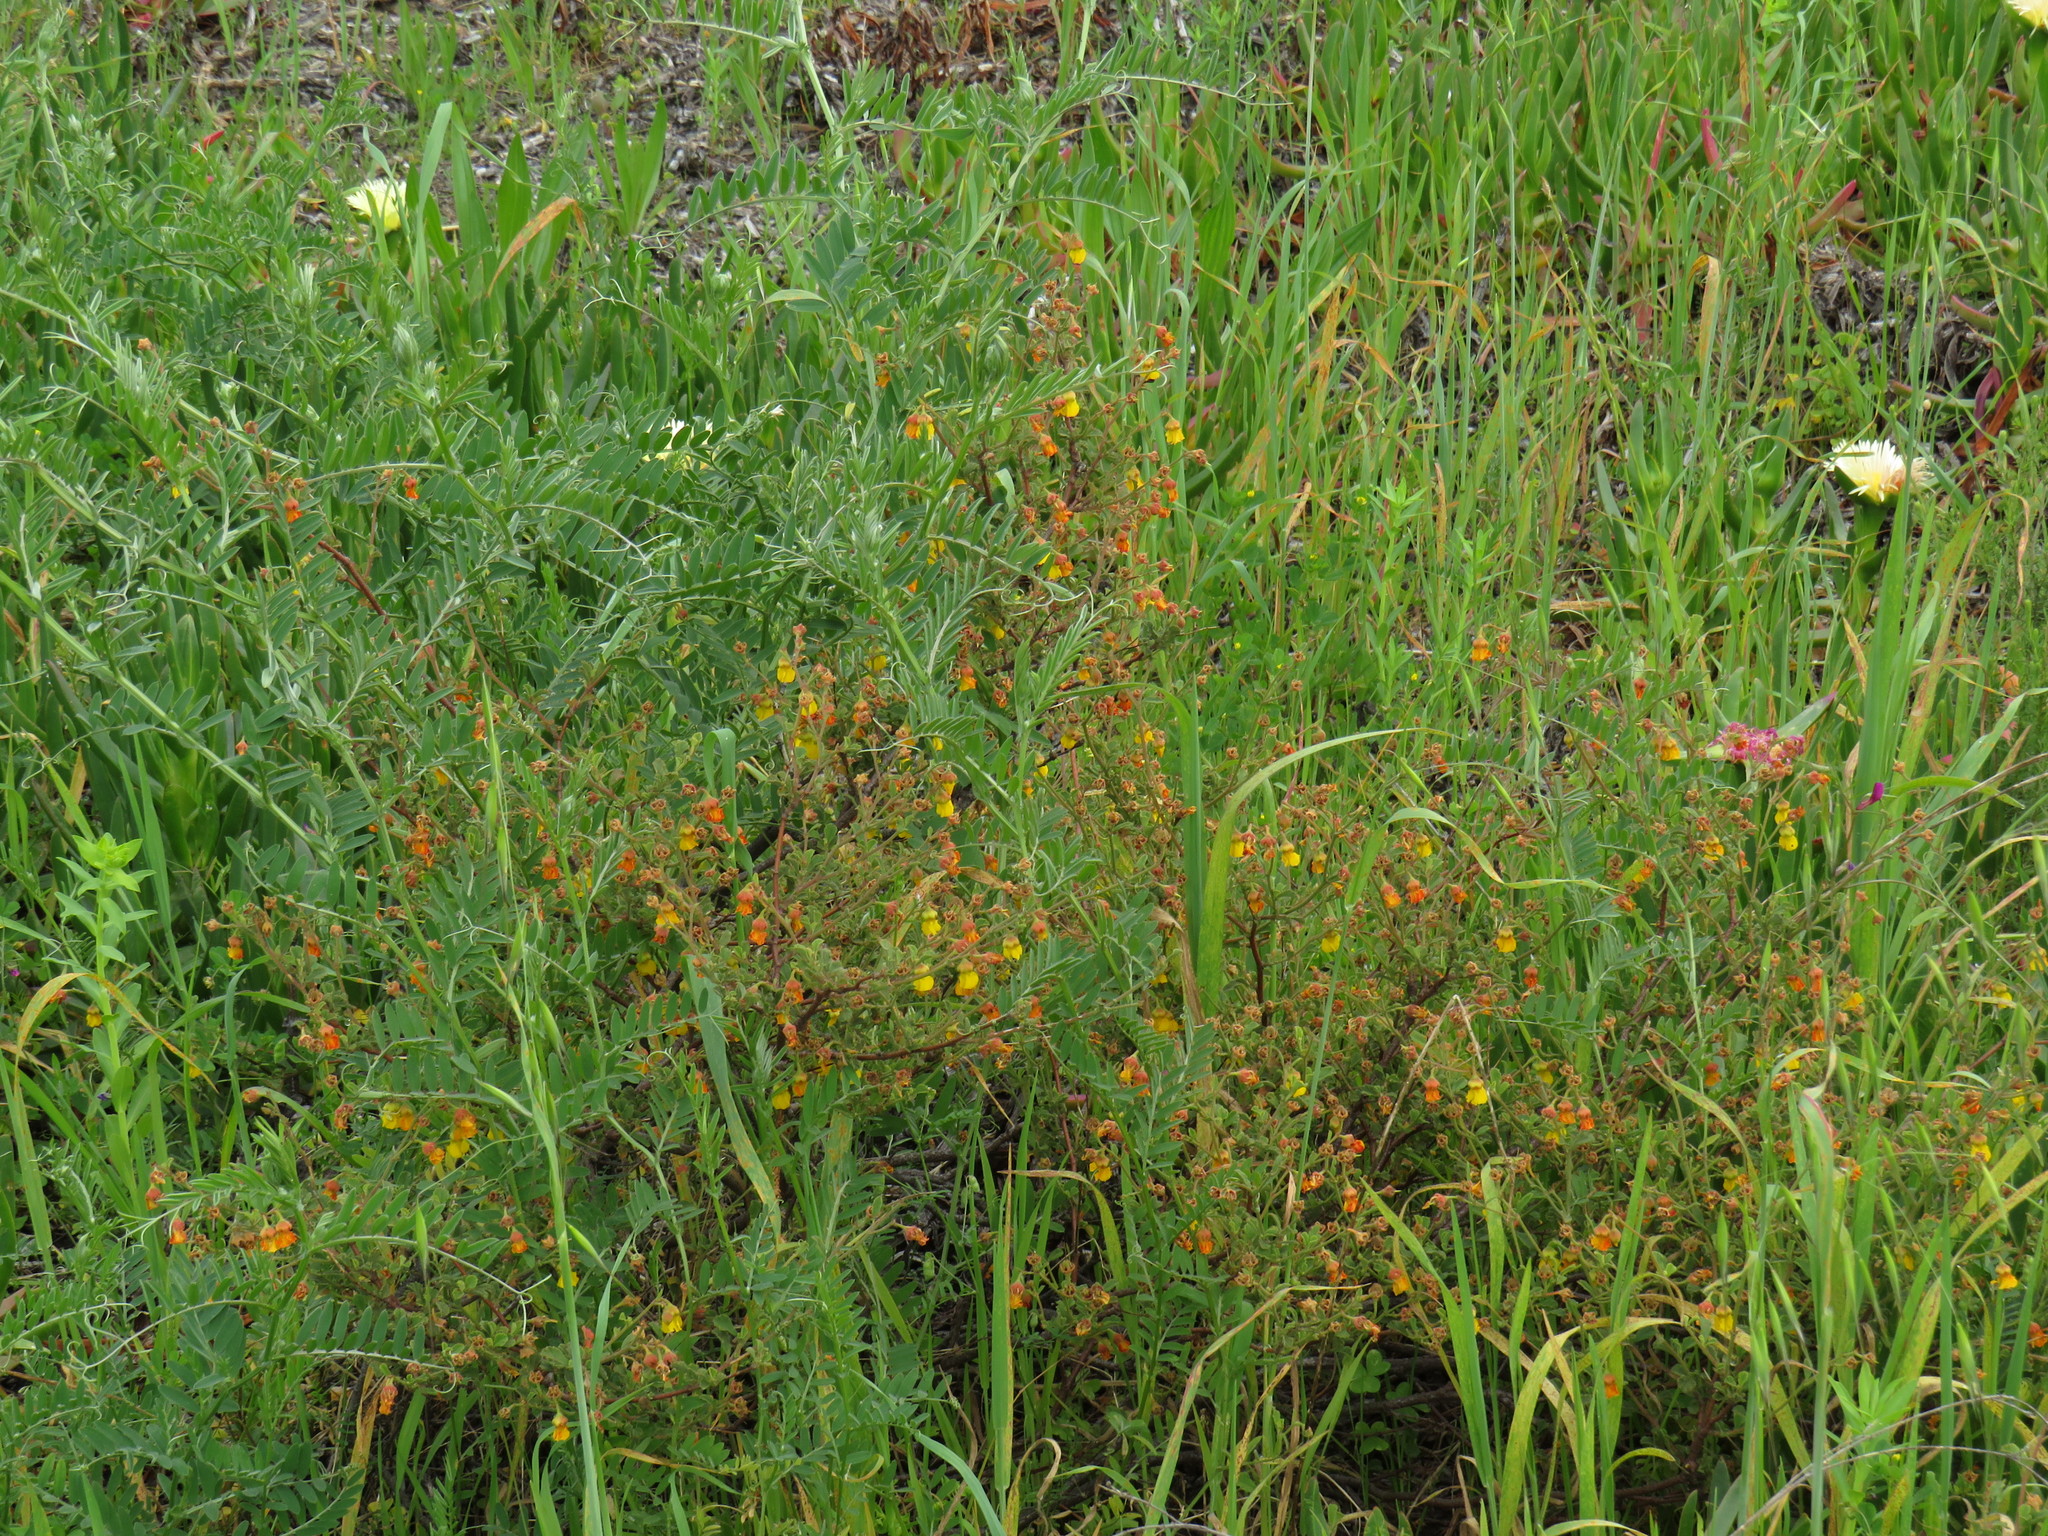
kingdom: Plantae
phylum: Tracheophyta
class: Magnoliopsida
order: Malvales
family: Malvaceae
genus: Hermannia
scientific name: Hermannia multiflora
